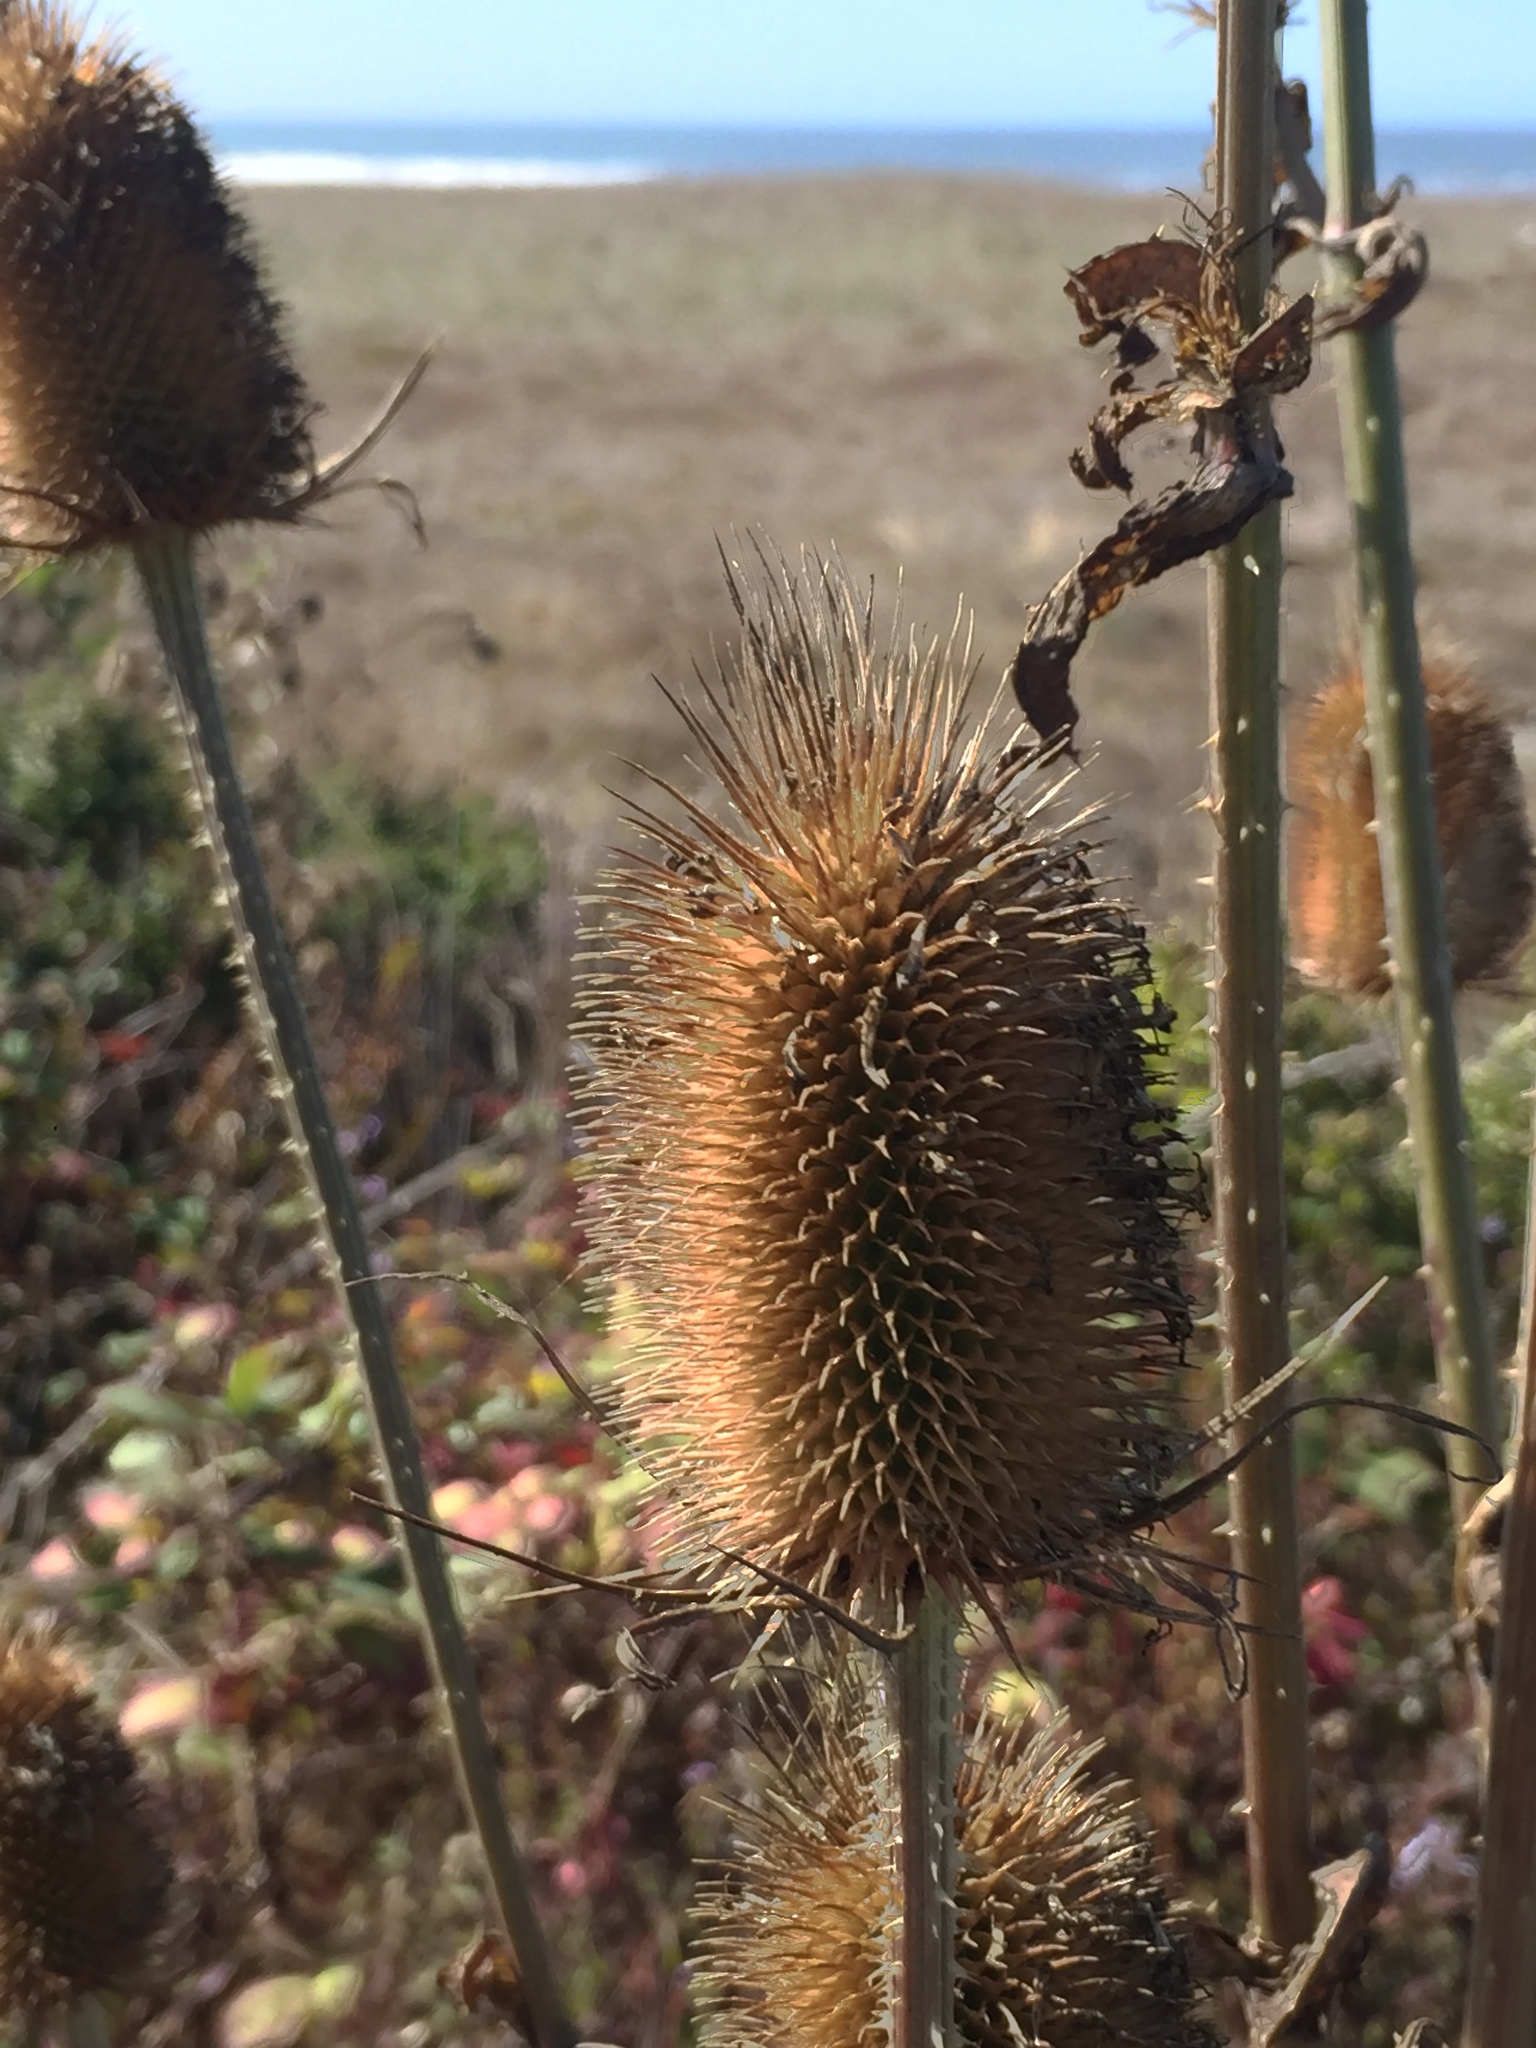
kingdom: Plantae
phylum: Tracheophyta
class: Magnoliopsida
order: Dipsacales
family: Caprifoliaceae
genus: Dipsacus
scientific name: Dipsacus fullonum
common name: Teasel
